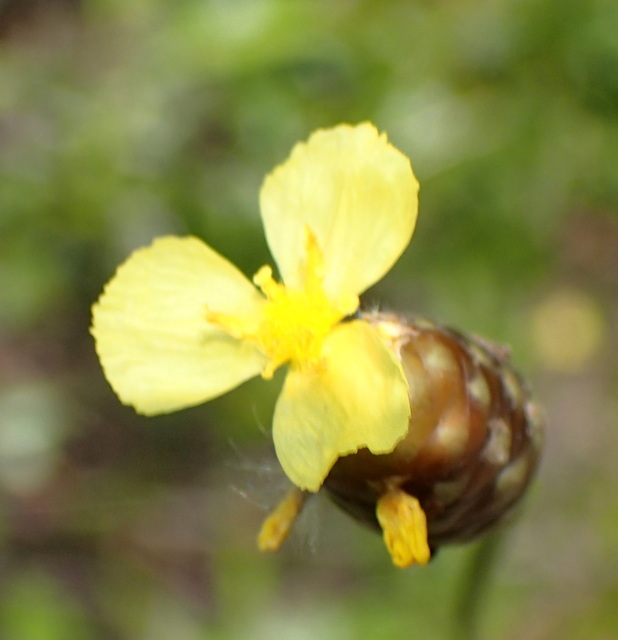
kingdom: Plantae
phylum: Tracheophyta
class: Liliopsida
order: Poales
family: Xyridaceae
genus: Xyris
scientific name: Xyris platylepis
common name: Tall yelloweyed grass
